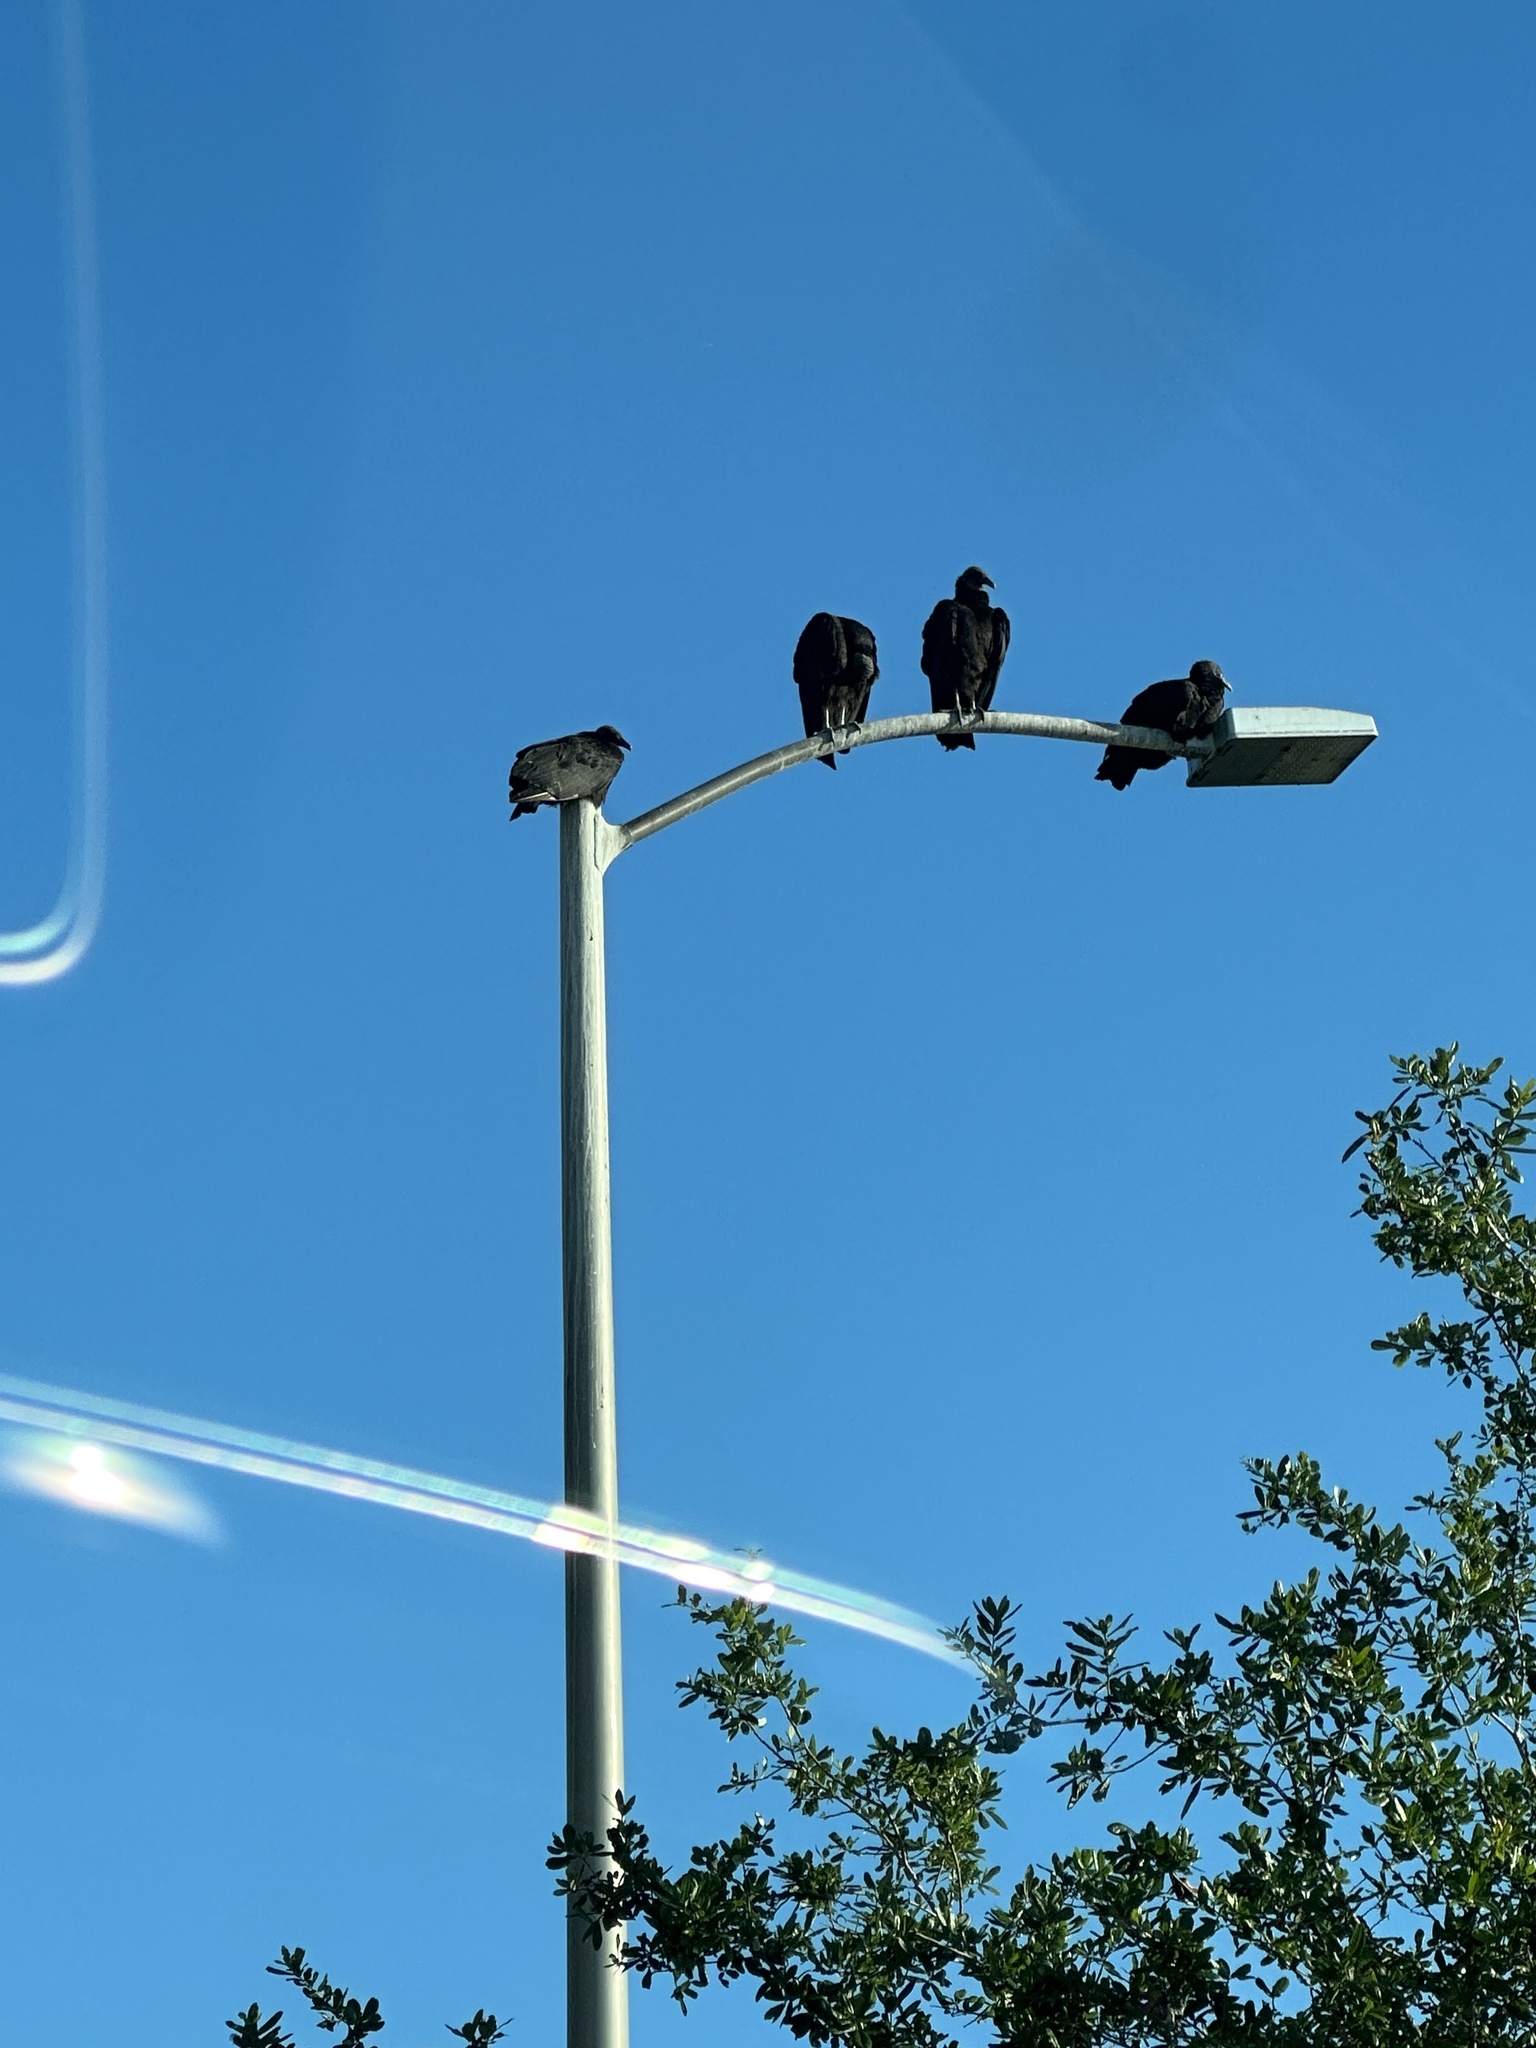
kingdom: Animalia
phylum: Chordata
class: Aves
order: Accipitriformes
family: Cathartidae
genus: Coragyps
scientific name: Coragyps atratus
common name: Black vulture
